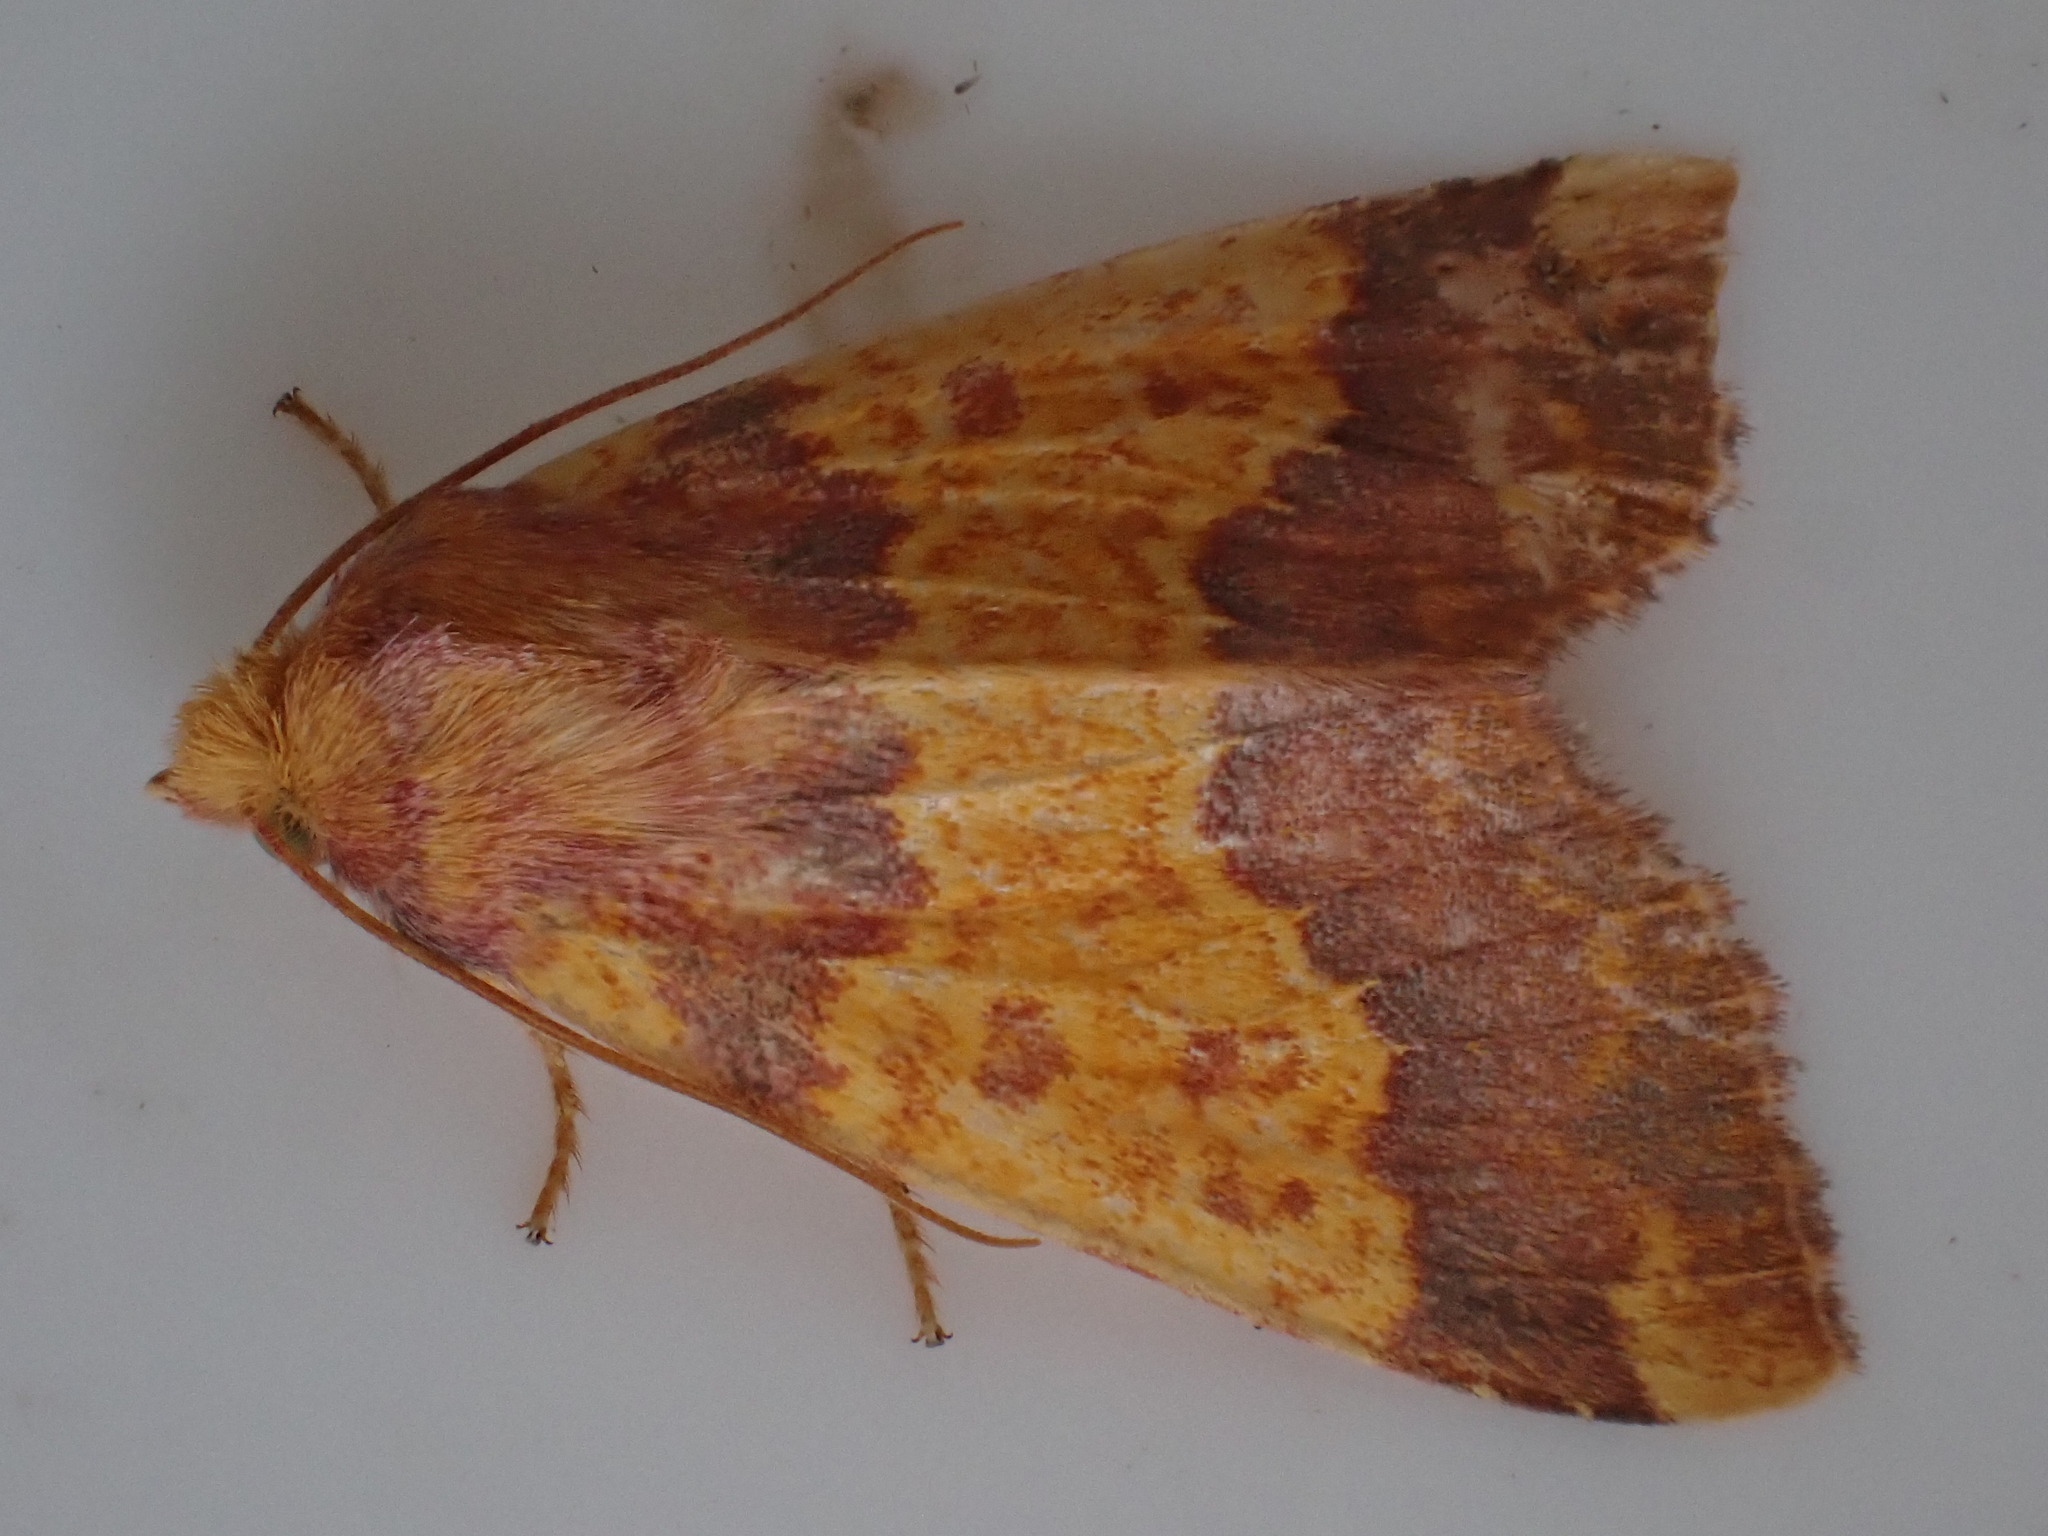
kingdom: Animalia
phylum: Arthropoda
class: Insecta
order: Lepidoptera
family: Noctuidae
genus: Tiliacea
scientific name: Tiliacea aurago
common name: Barred sallow
